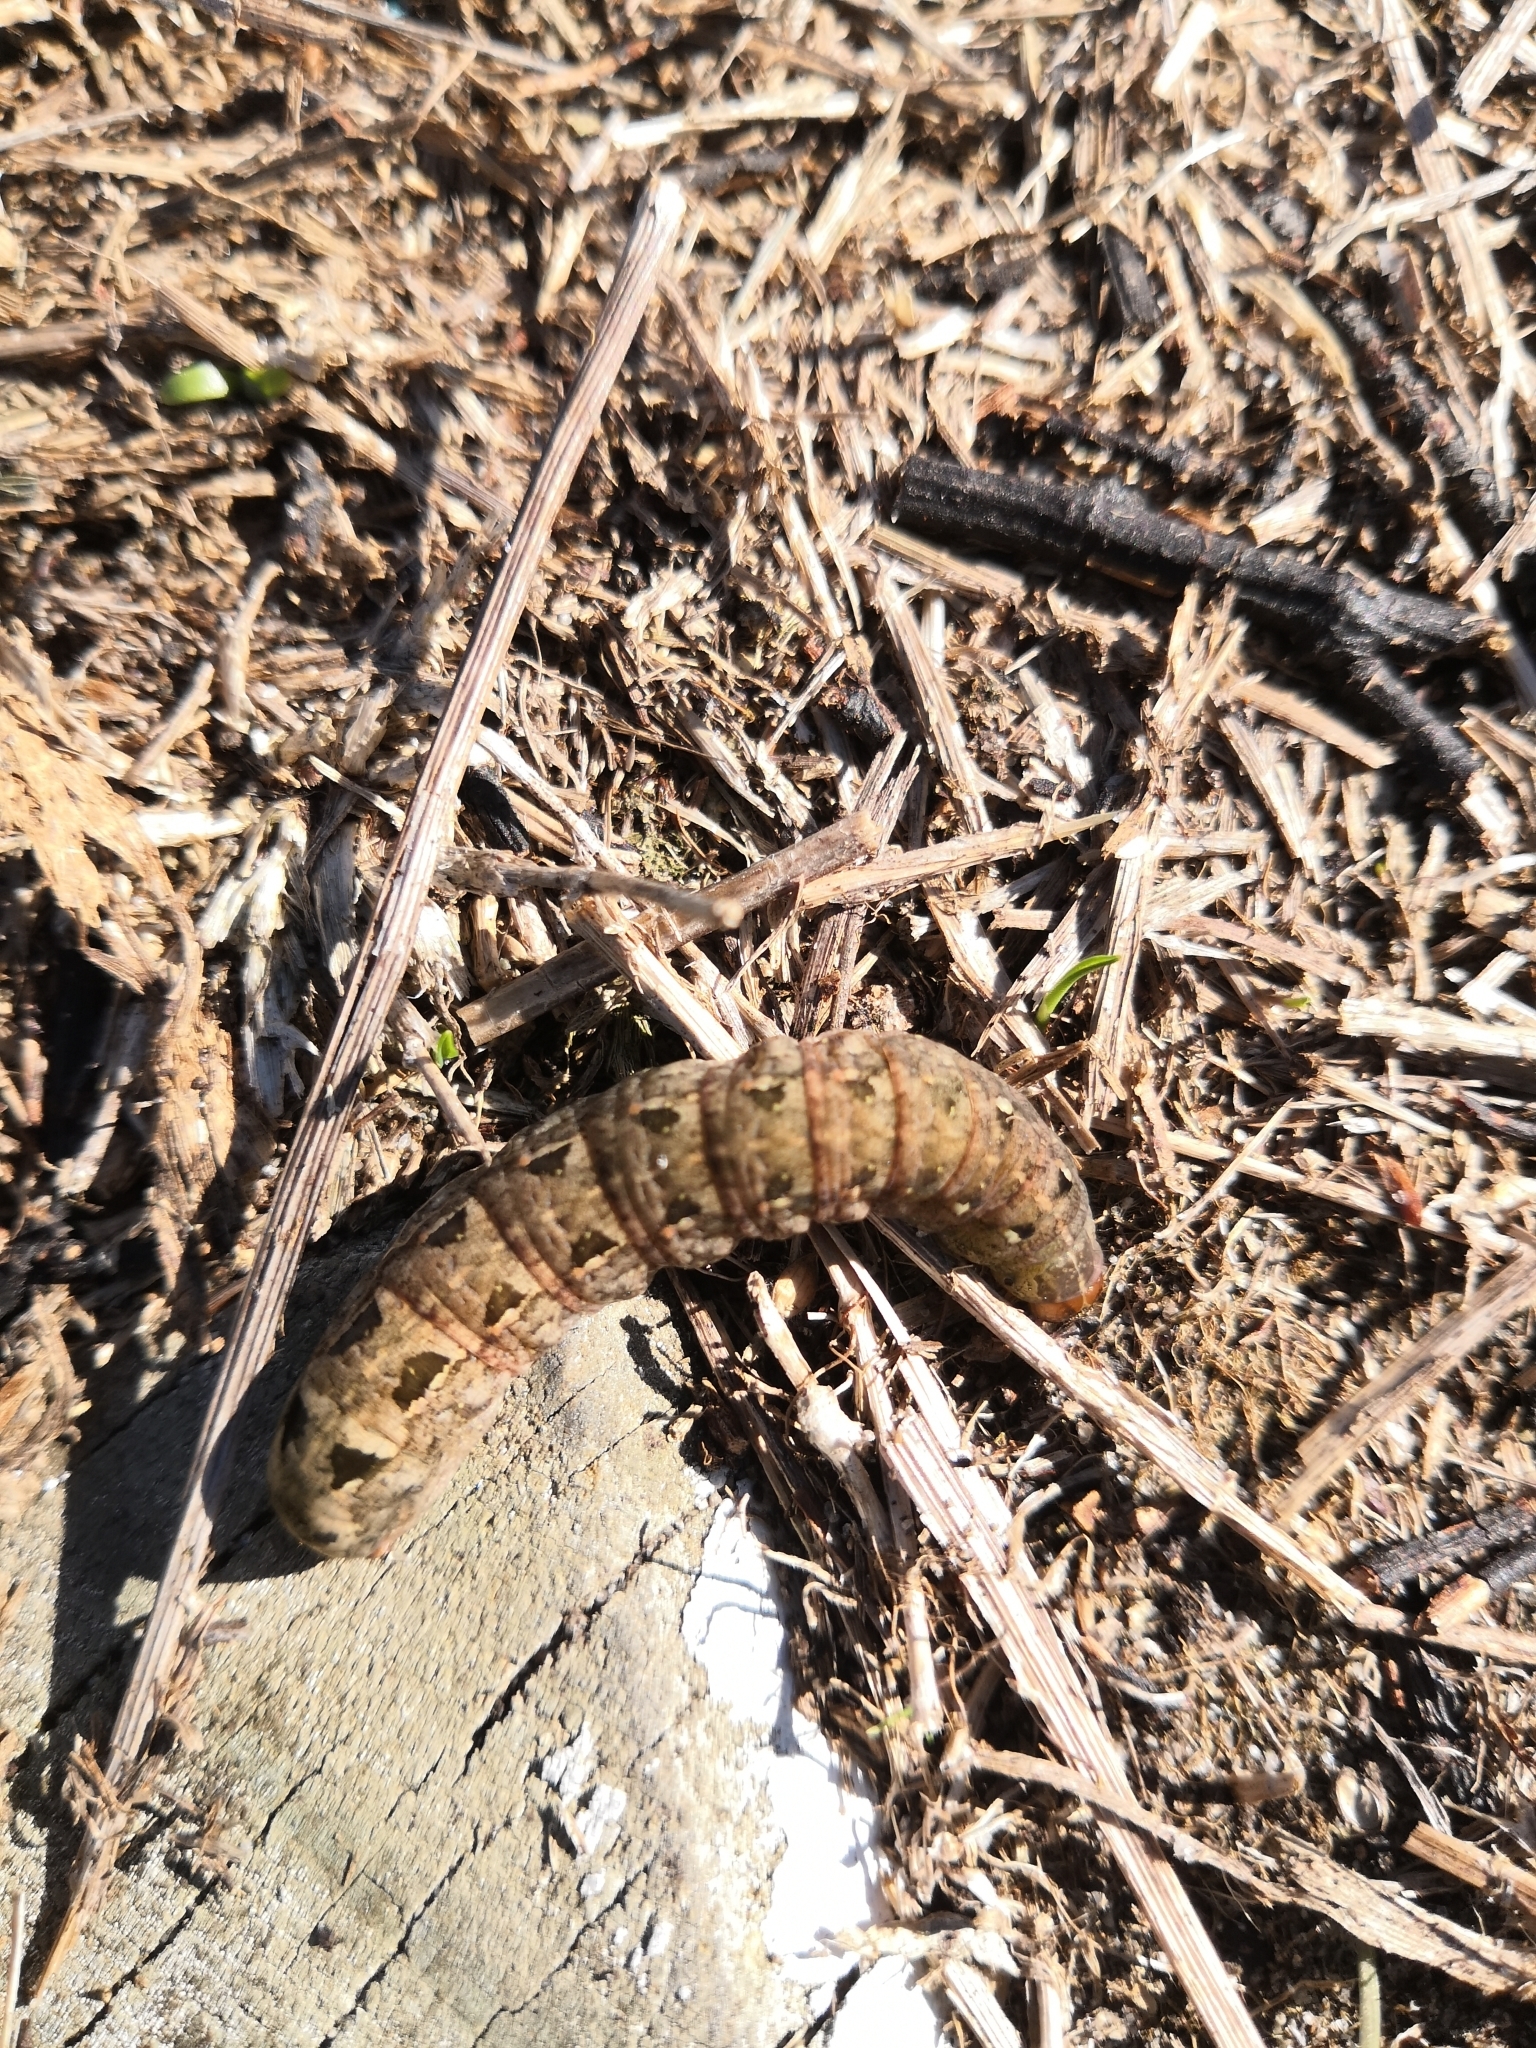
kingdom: Animalia
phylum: Arthropoda
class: Insecta
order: Lepidoptera
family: Noctuidae
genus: Spodoptera
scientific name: Spodoptera litura
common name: Asian cotton leafworm
